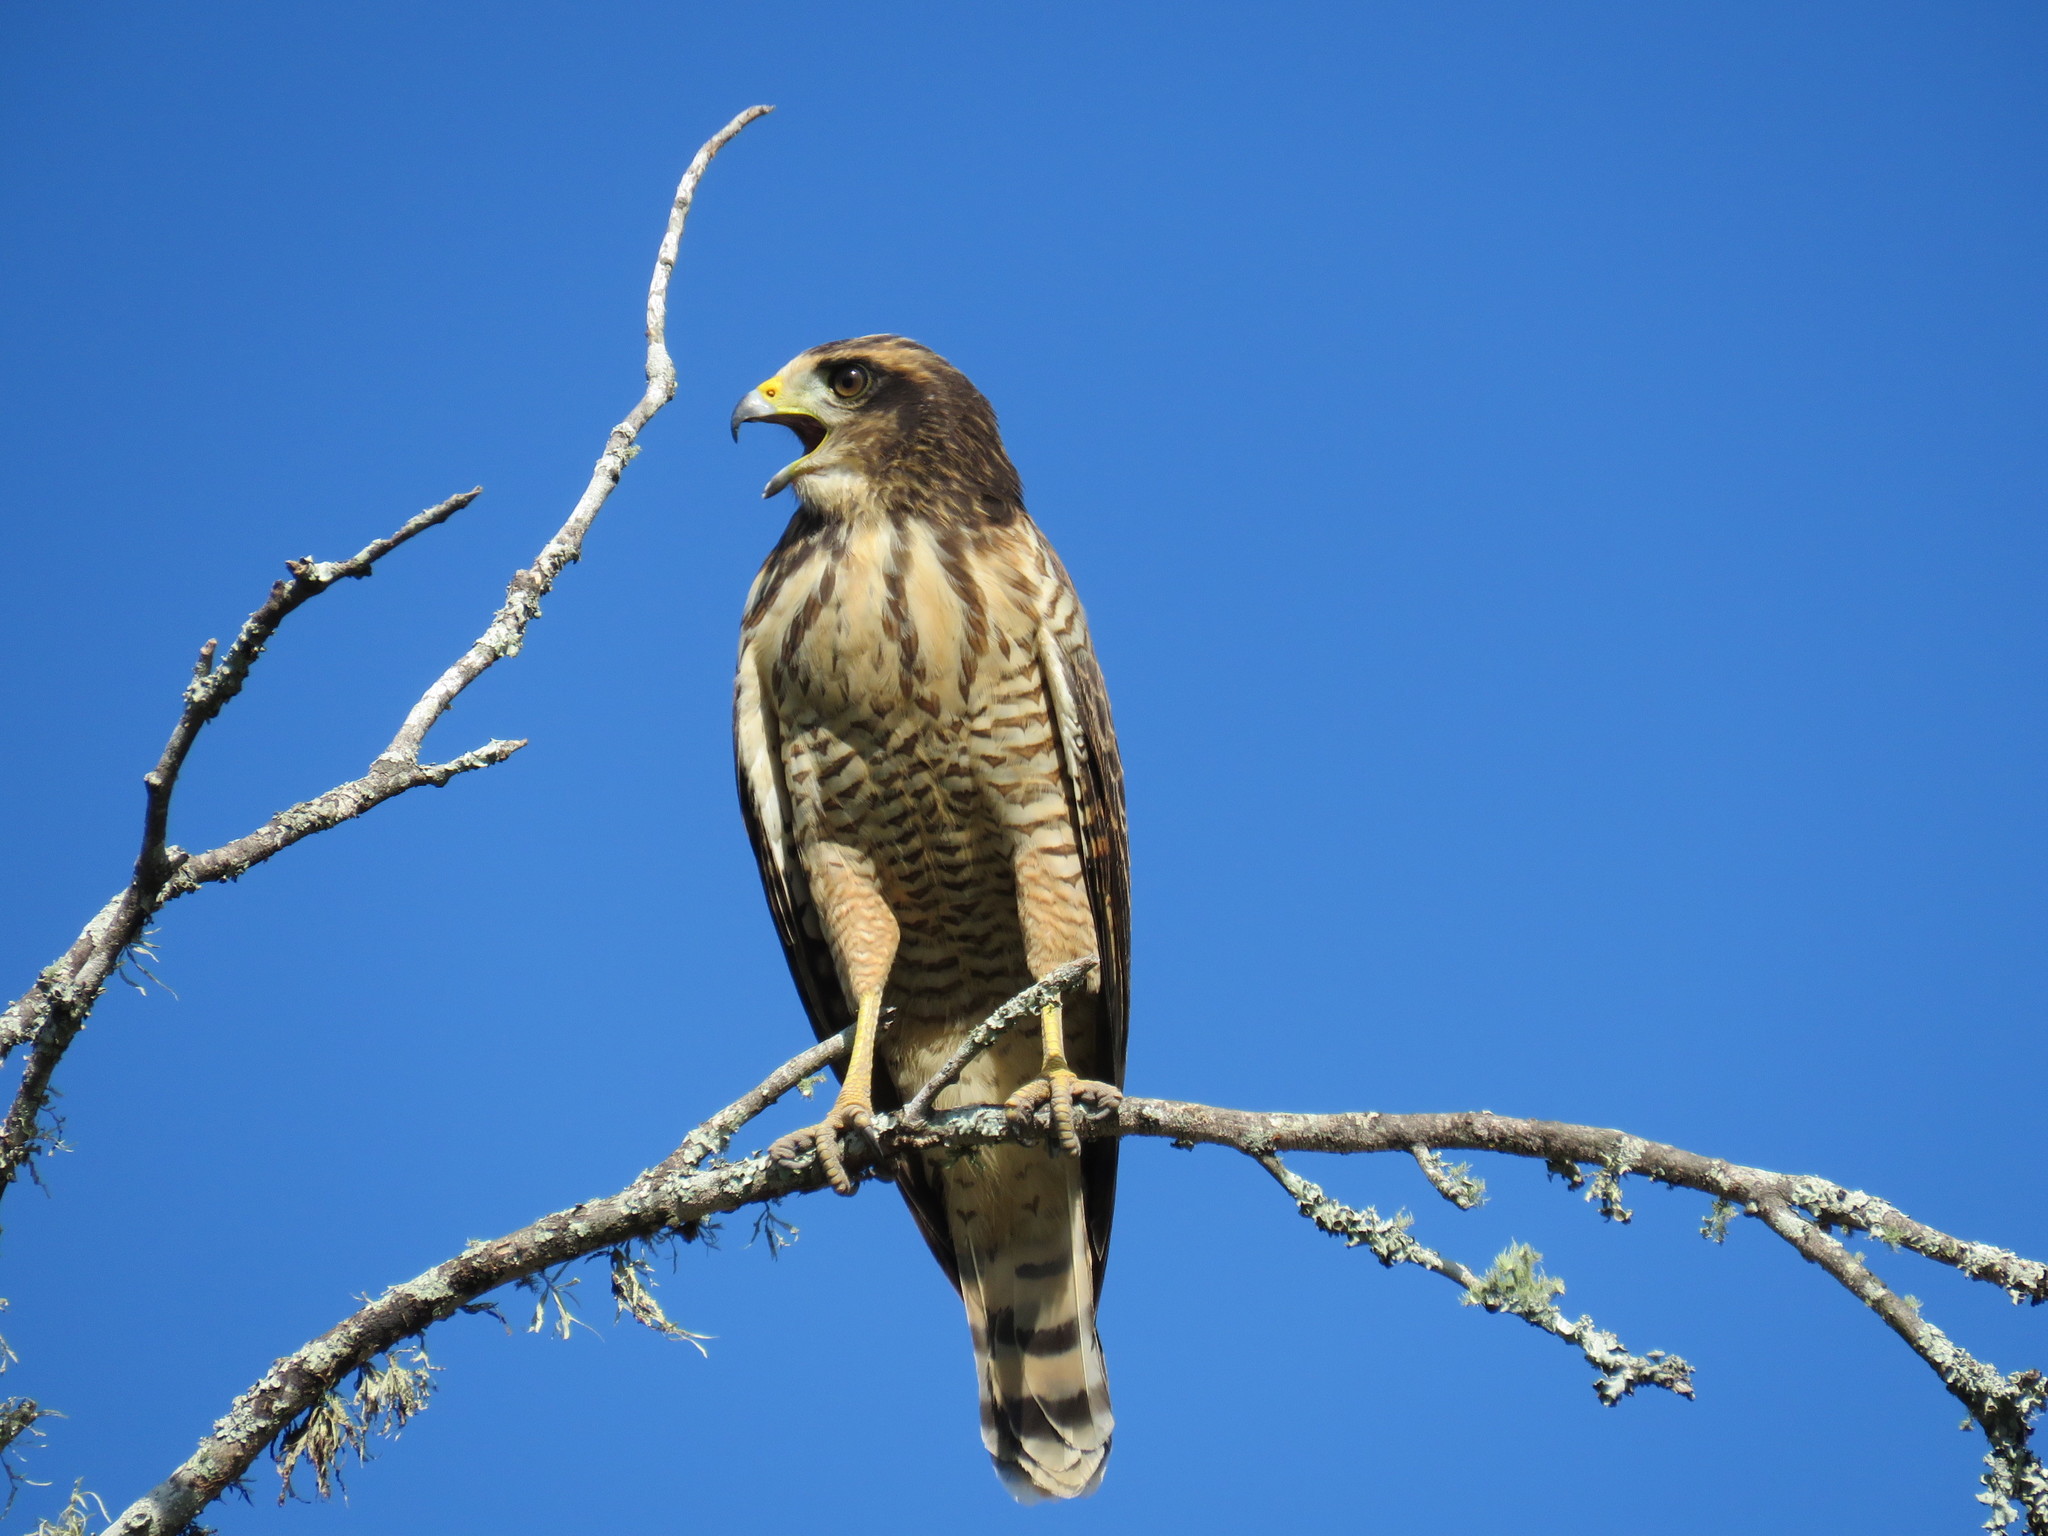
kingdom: Animalia
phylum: Chordata
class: Aves
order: Accipitriformes
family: Accipitridae
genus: Rupornis
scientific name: Rupornis magnirostris
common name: Roadside hawk
